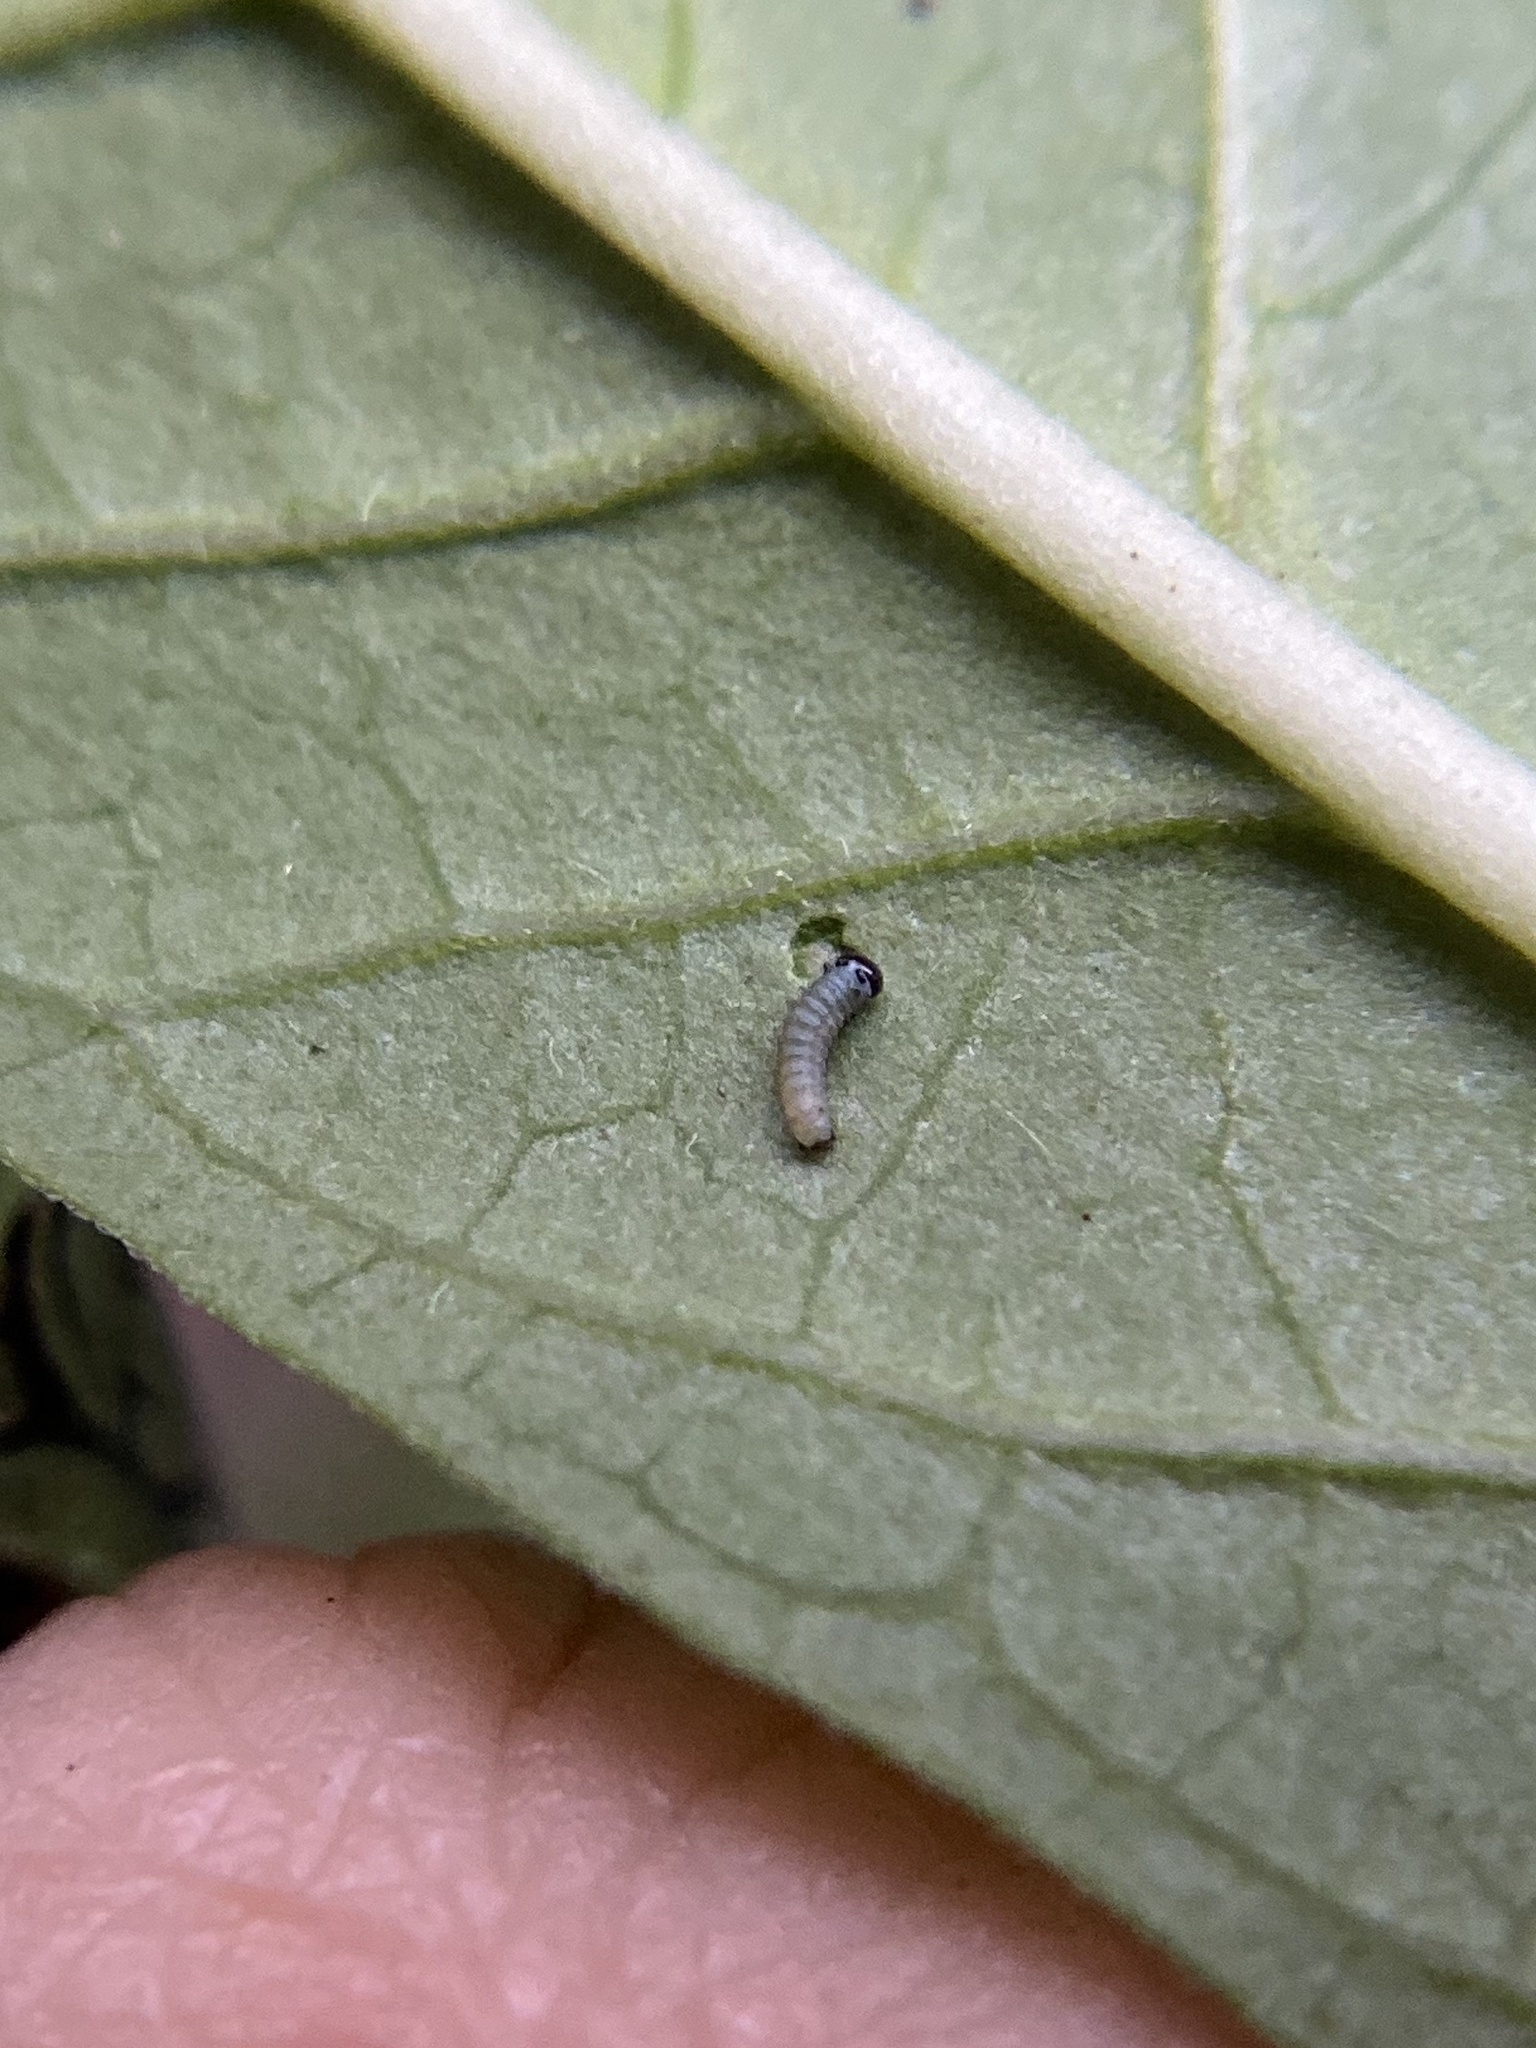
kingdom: Animalia
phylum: Arthropoda
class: Insecta
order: Lepidoptera
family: Nymphalidae
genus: Danaus
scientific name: Danaus plexippus
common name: Monarch
